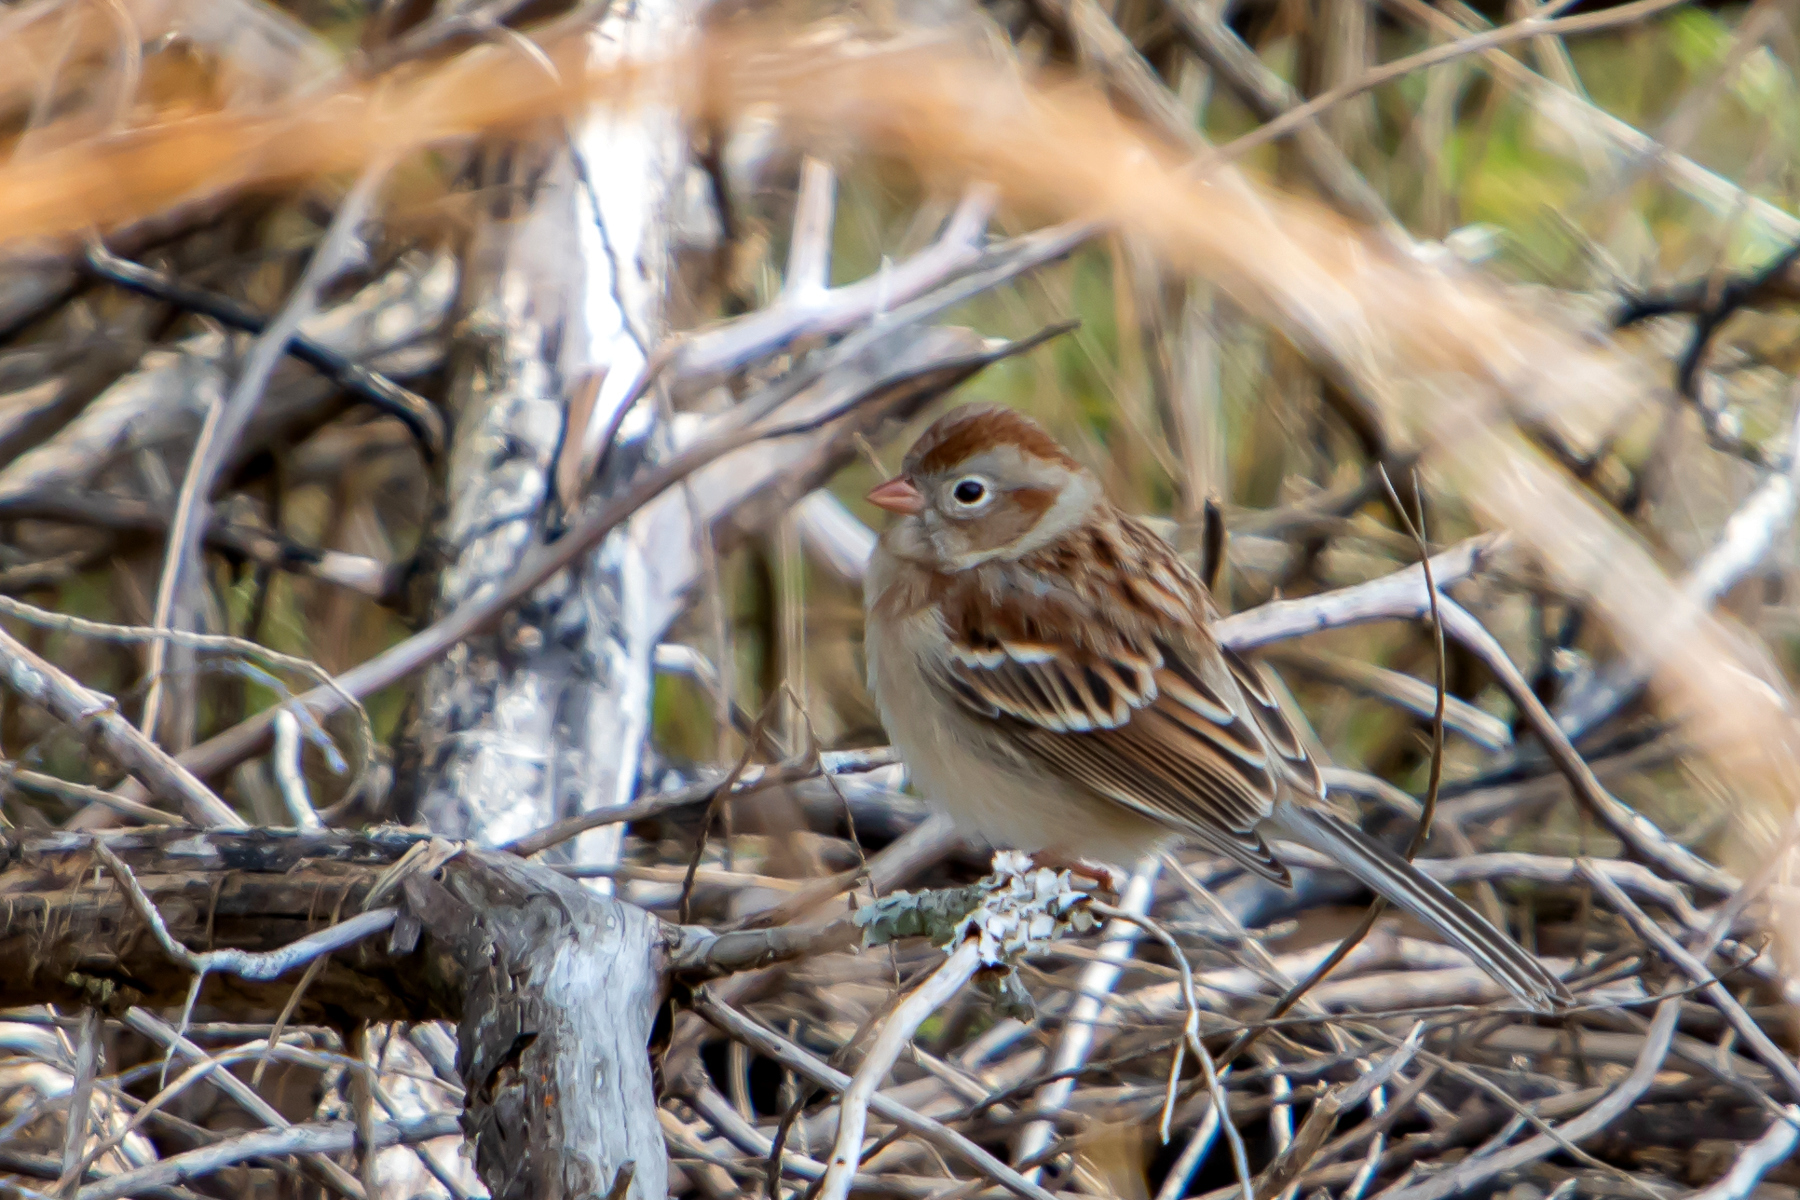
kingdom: Animalia
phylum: Chordata
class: Aves
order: Passeriformes
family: Passerellidae
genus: Spizella
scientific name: Spizella pusilla
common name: Field sparrow
